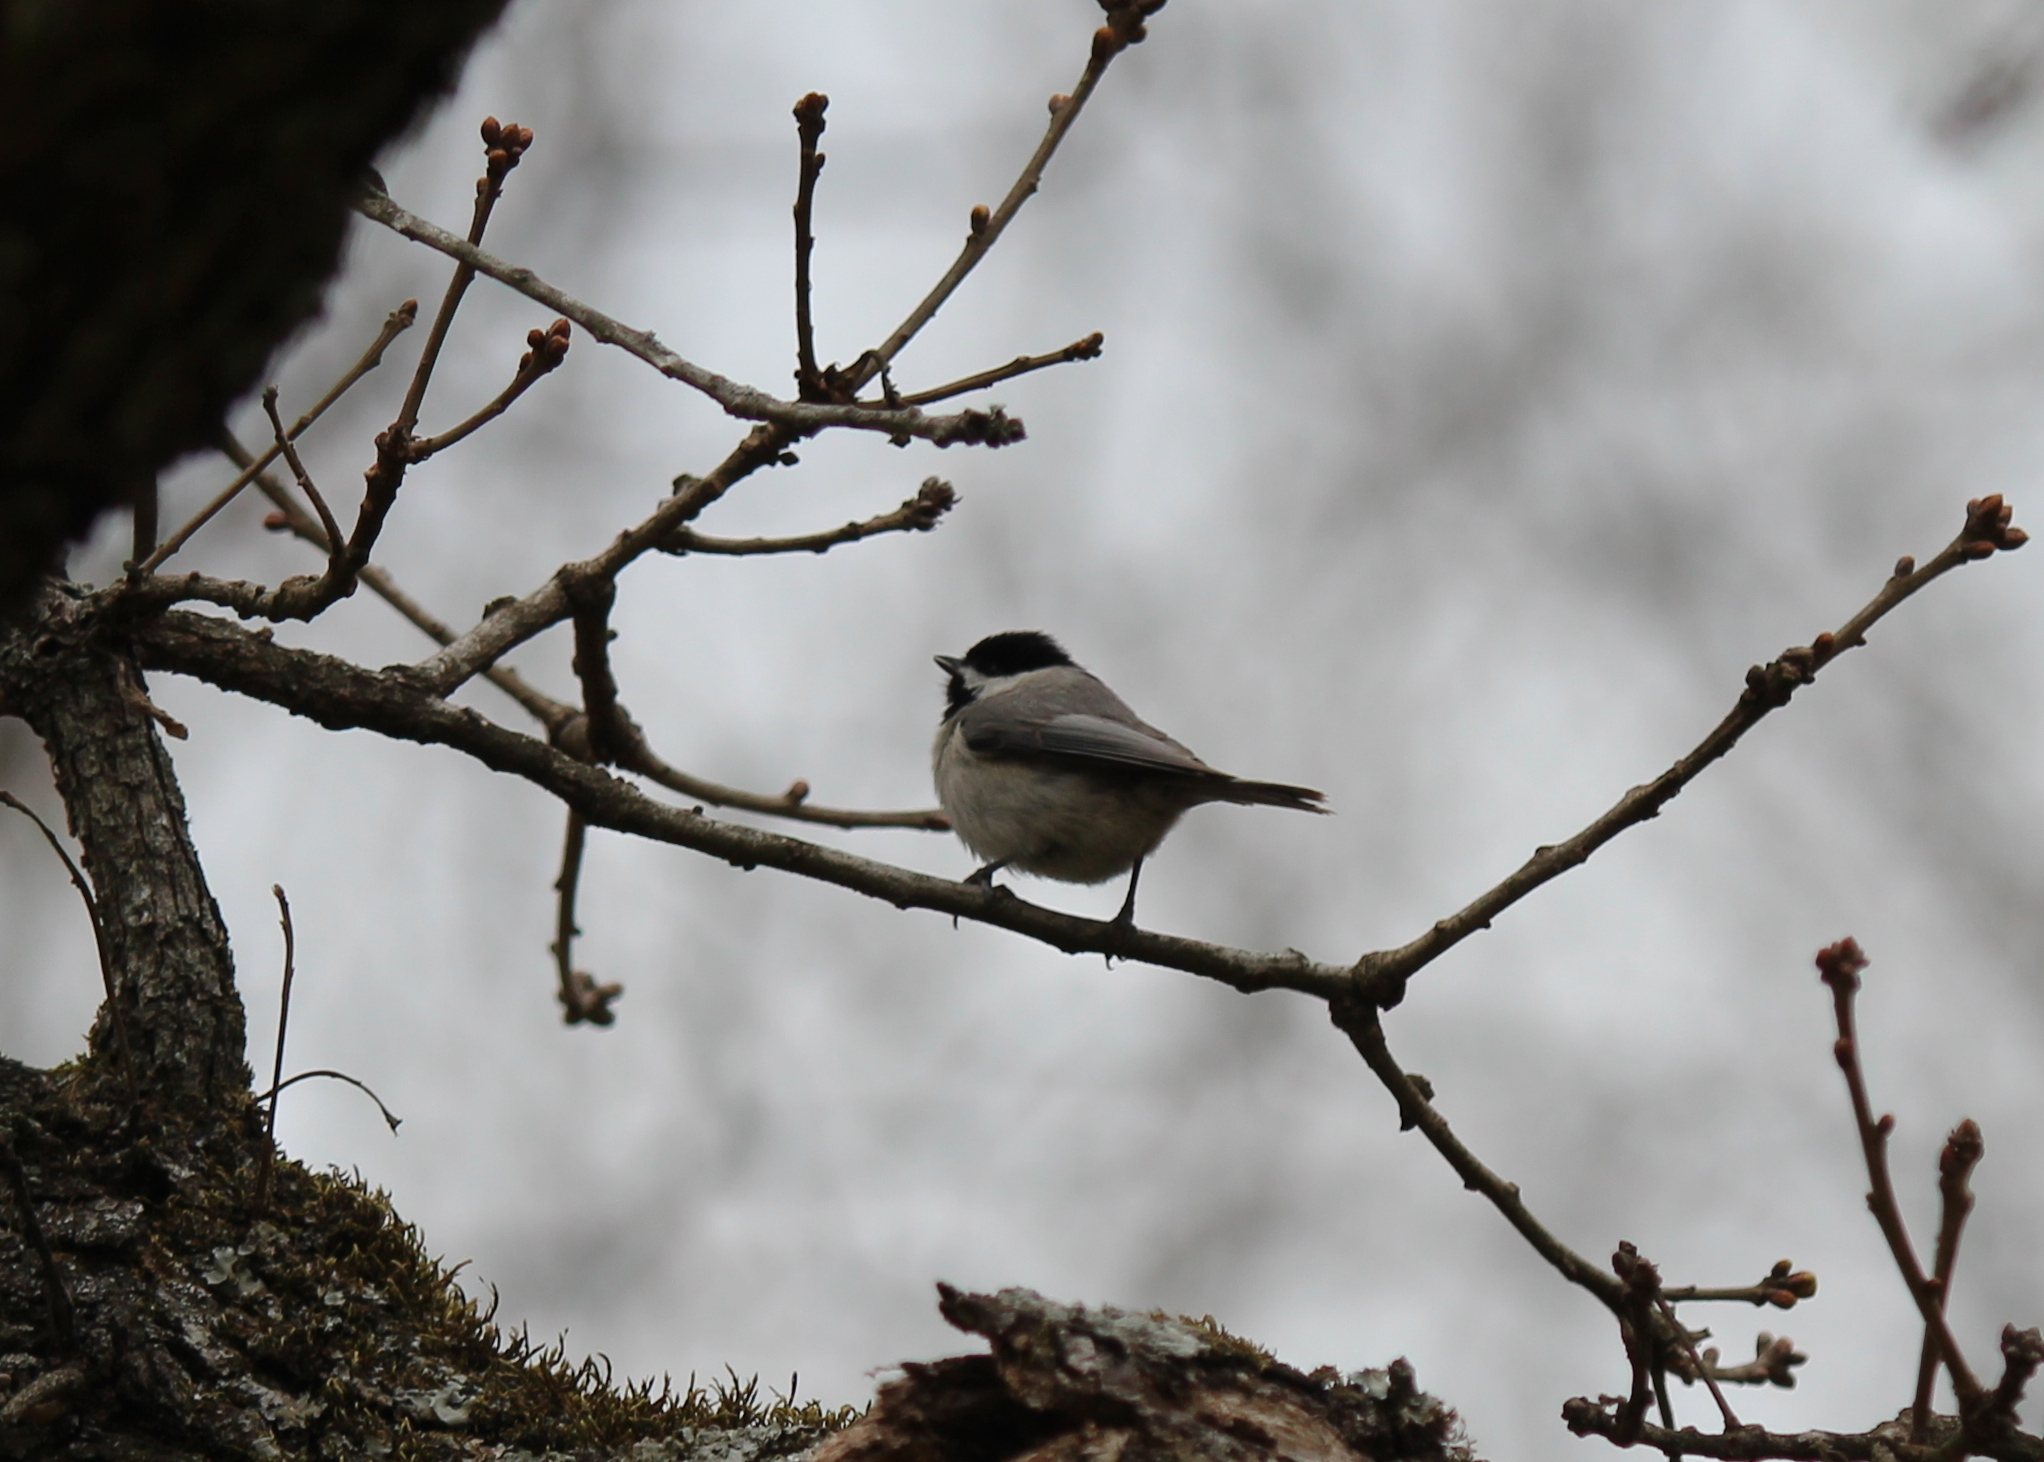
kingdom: Animalia
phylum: Chordata
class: Aves
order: Passeriformes
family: Paridae
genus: Poecile
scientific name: Poecile carolinensis
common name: Carolina chickadee
